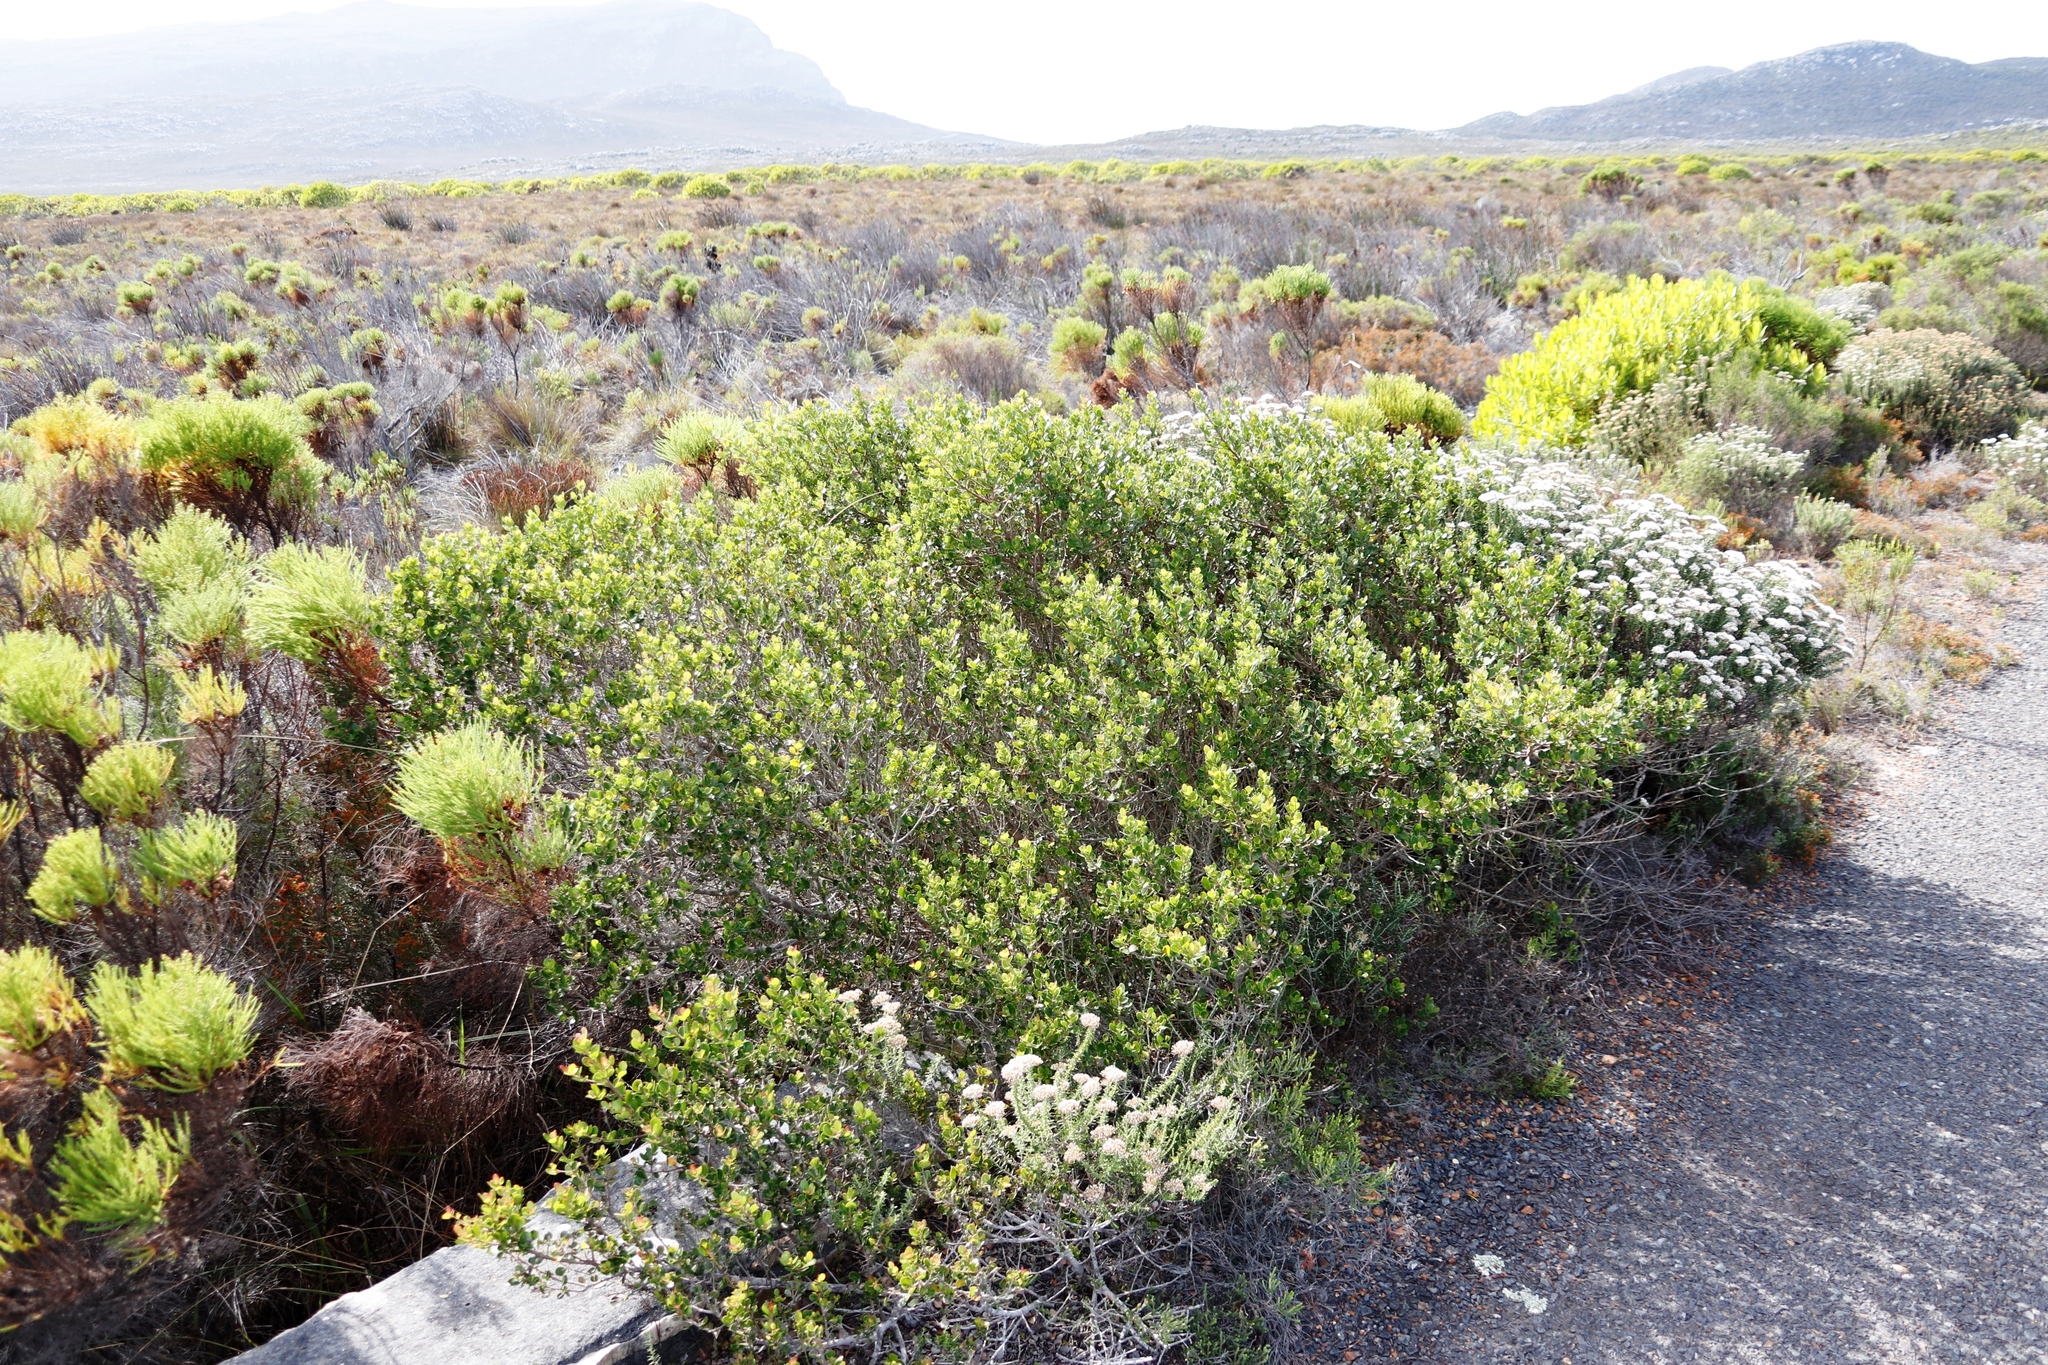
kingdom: Plantae
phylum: Tracheophyta
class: Magnoliopsida
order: Sapindales
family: Anacardiaceae
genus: Searsia
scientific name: Searsia lucida
